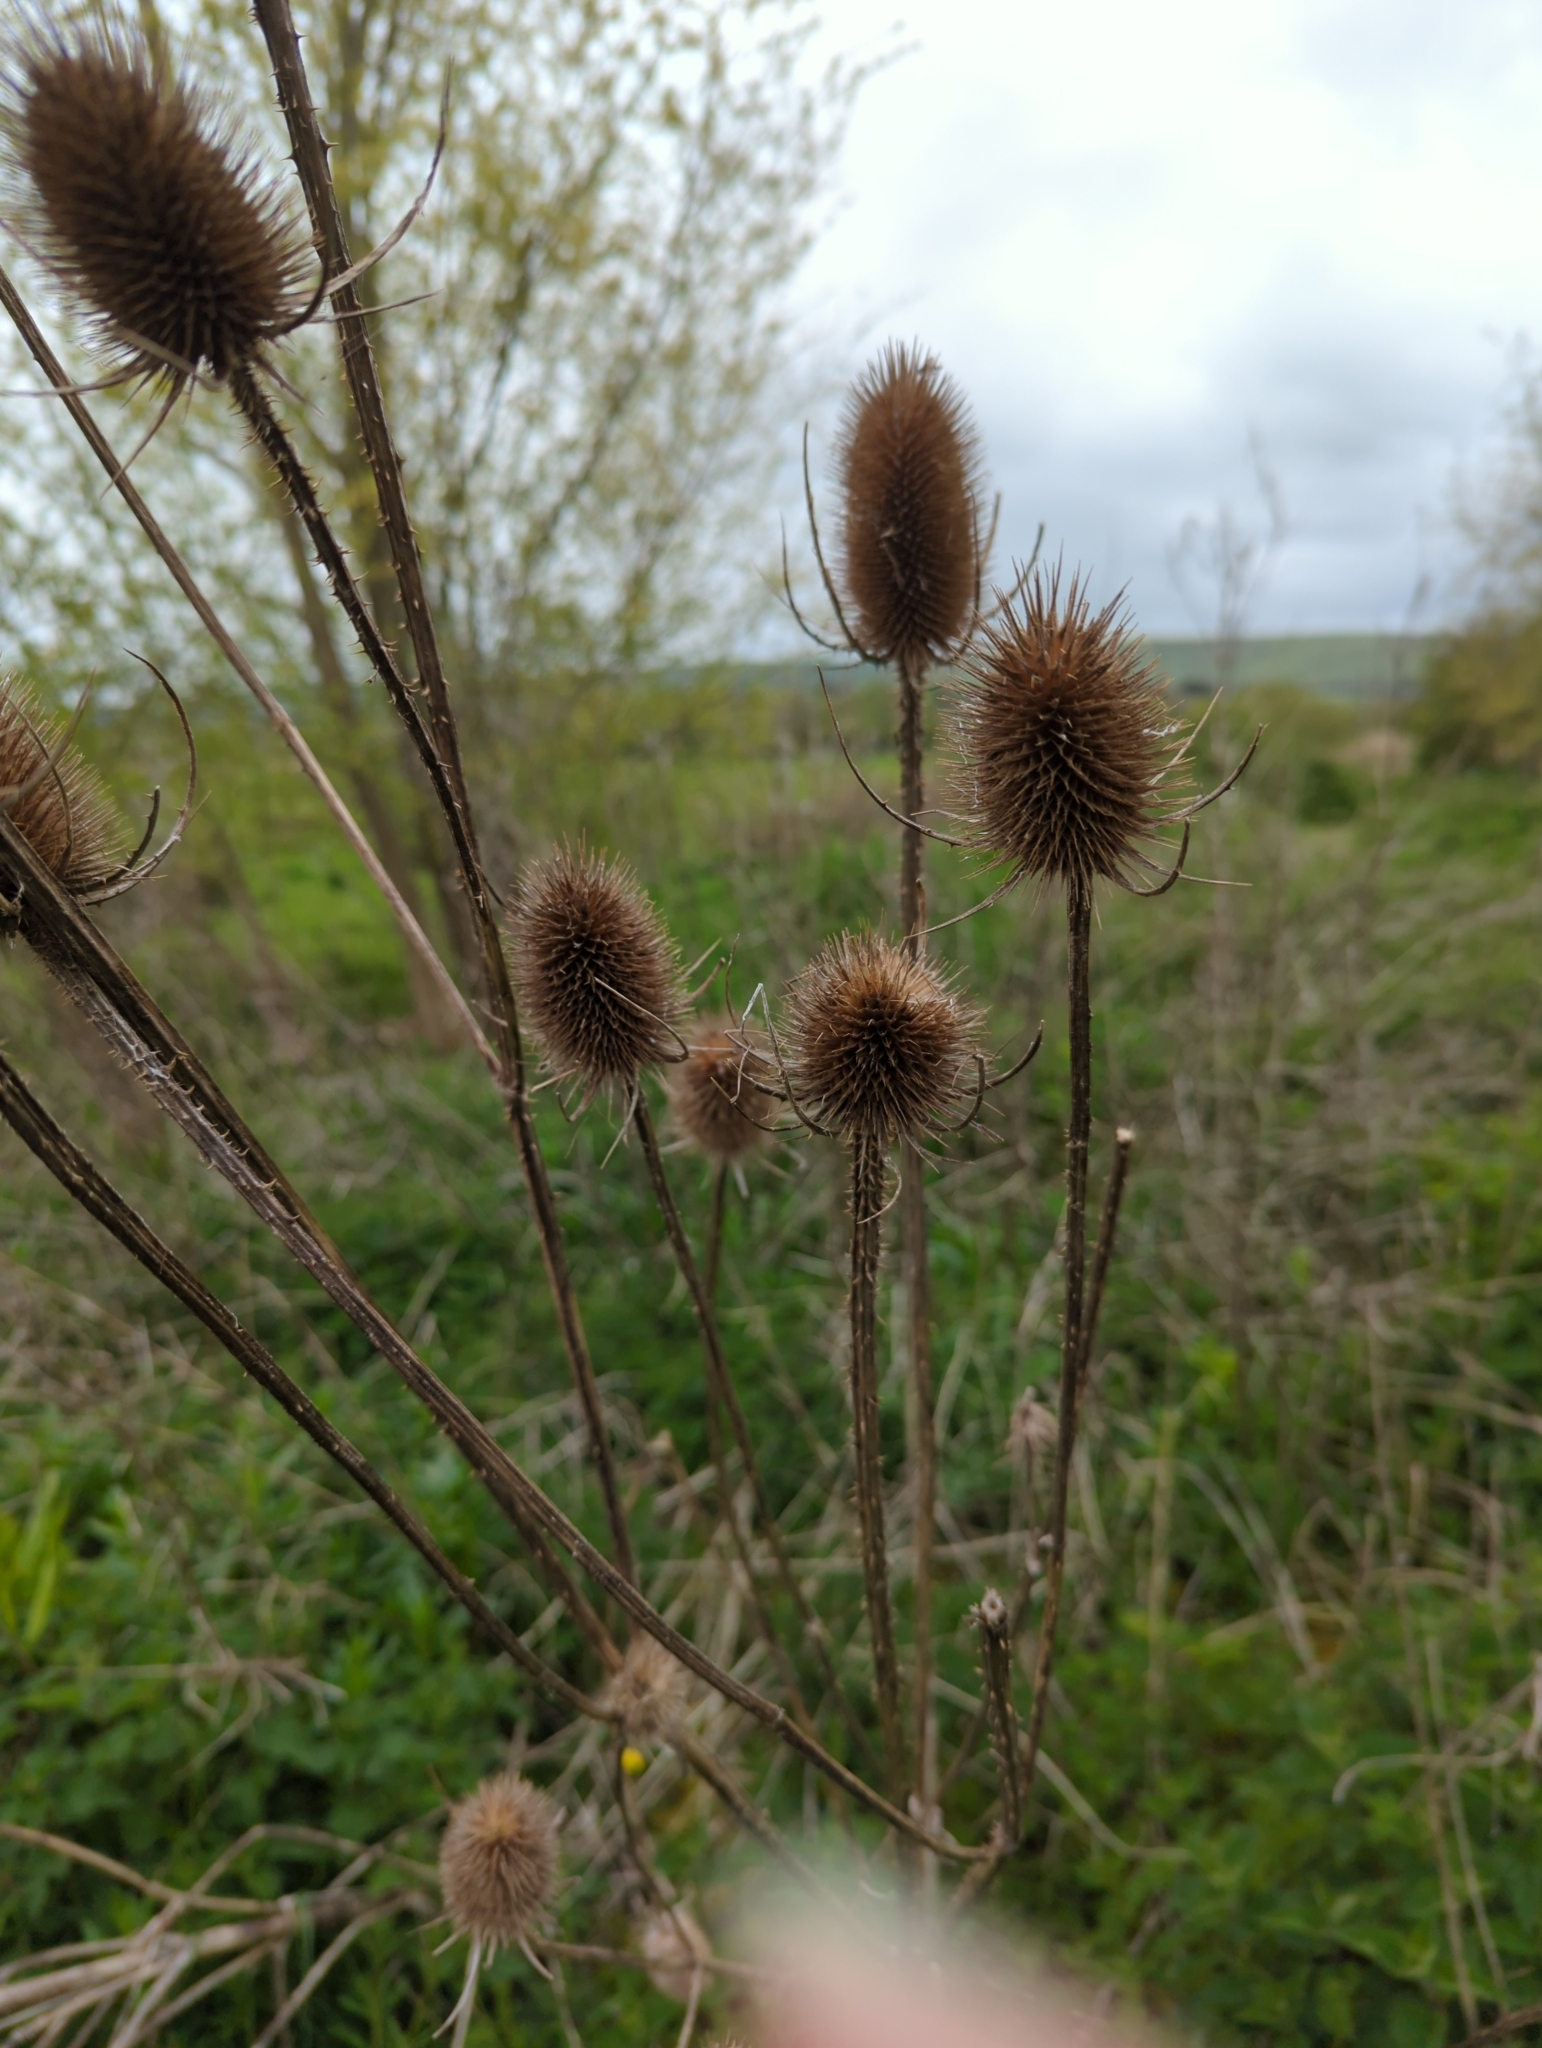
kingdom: Plantae
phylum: Tracheophyta
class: Magnoliopsida
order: Dipsacales
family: Caprifoliaceae
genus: Dipsacus
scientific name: Dipsacus fullonum
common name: Teasel
